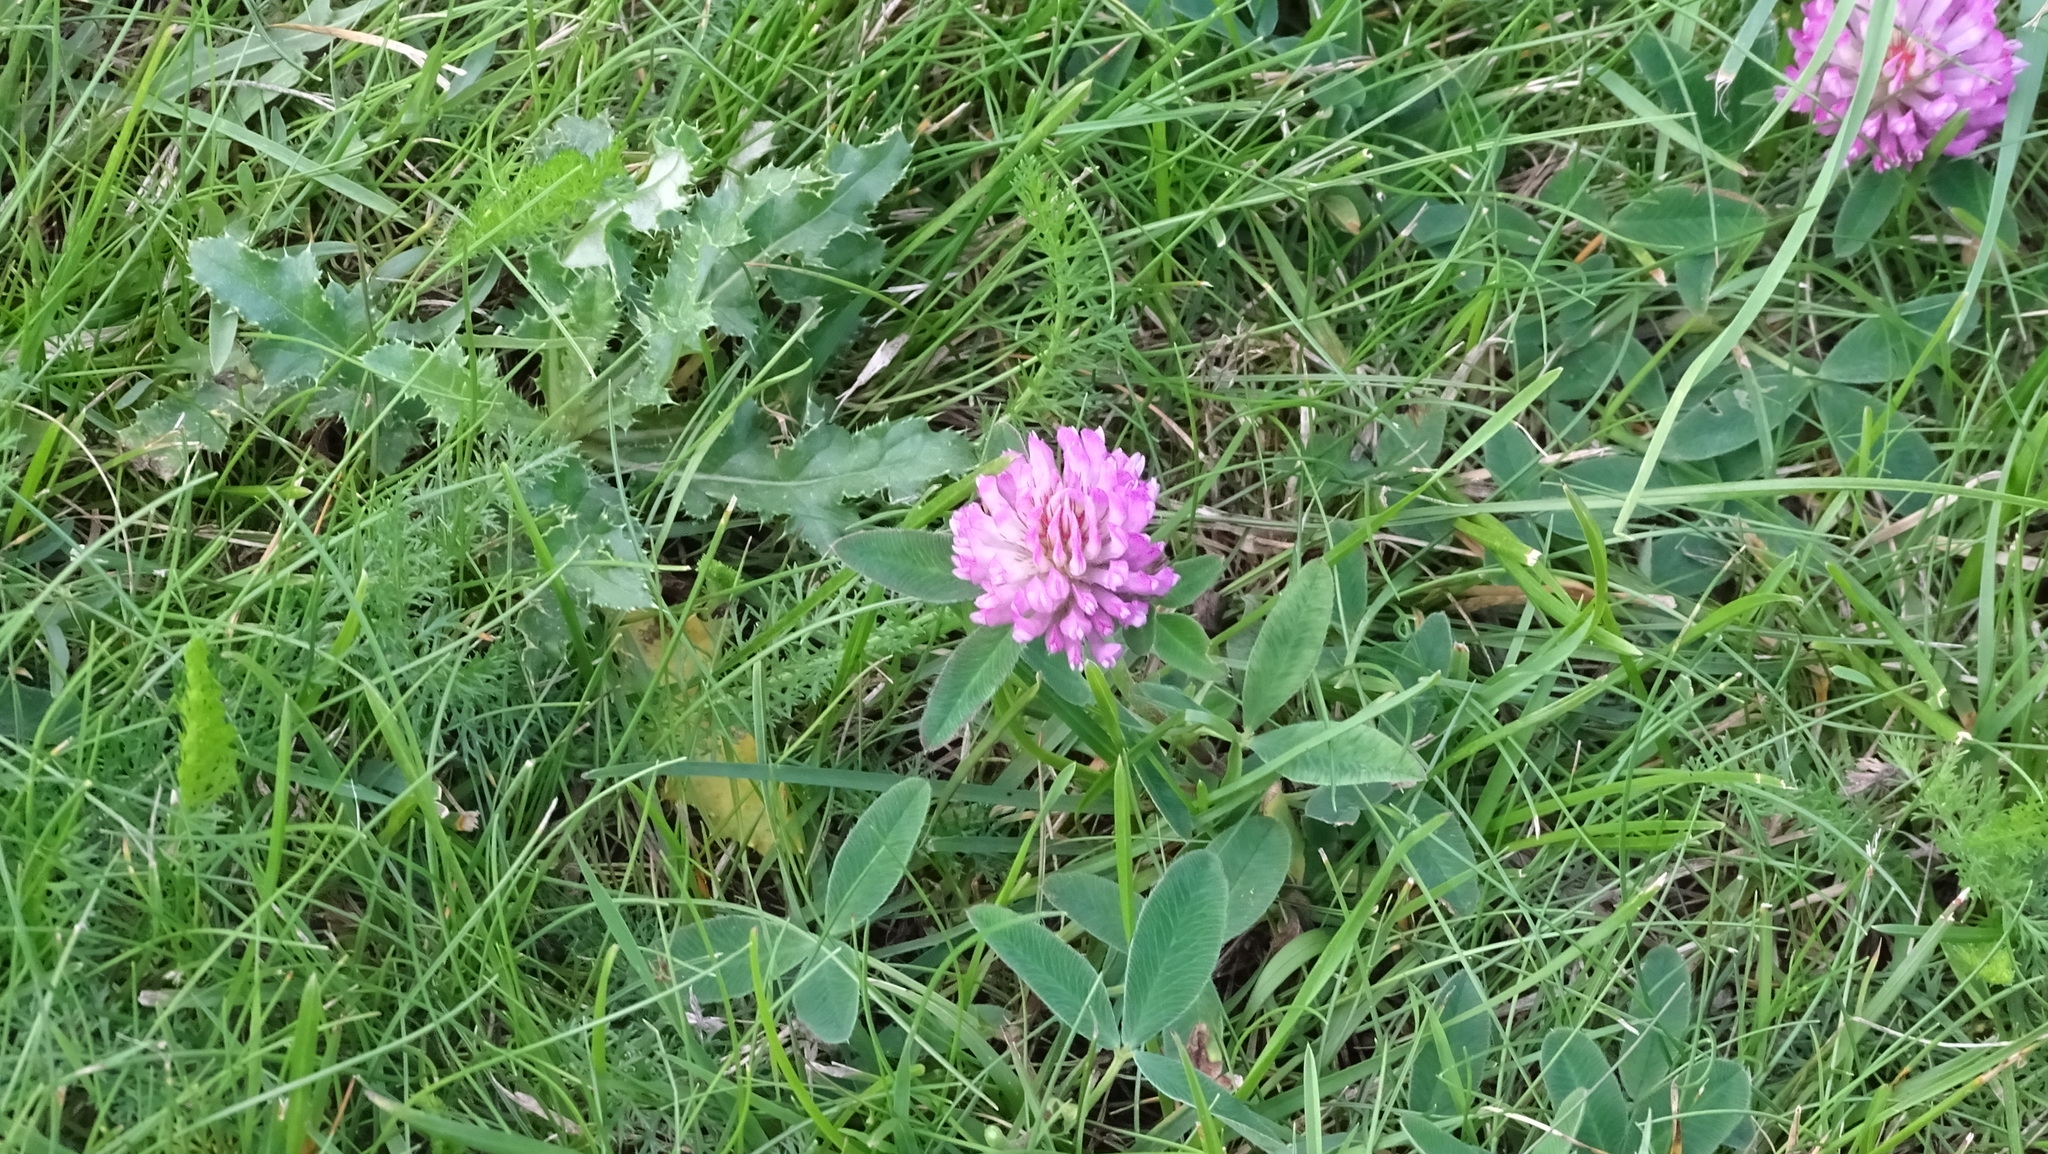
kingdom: Plantae
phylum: Tracheophyta
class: Magnoliopsida
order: Fabales
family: Fabaceae
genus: Trifolium
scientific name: Trifolium pratense
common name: Red clover
